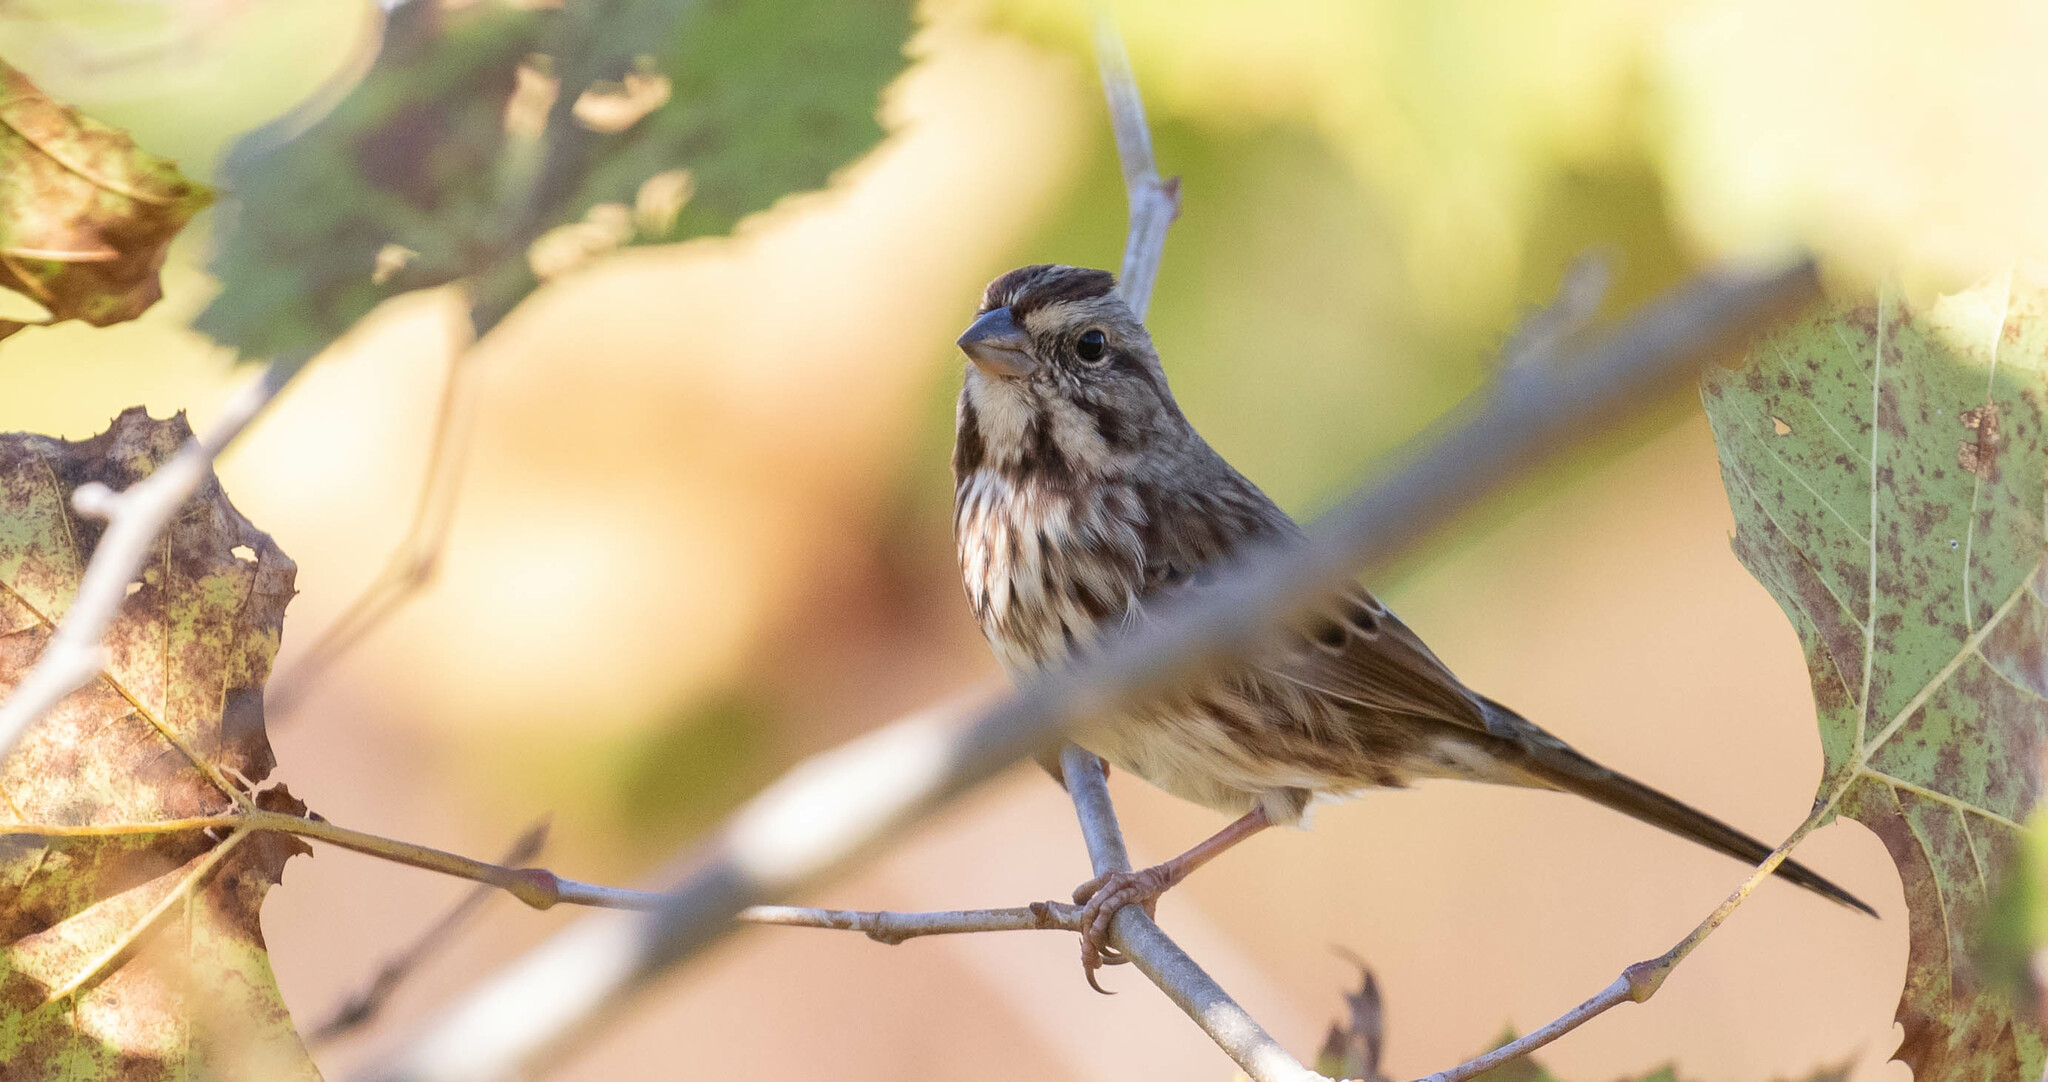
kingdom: Animalia
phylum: Chordata
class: Aves
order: Passeriformes
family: Passerellidae
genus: Melospiza
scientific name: Melospiza melodia
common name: Song sparrow
